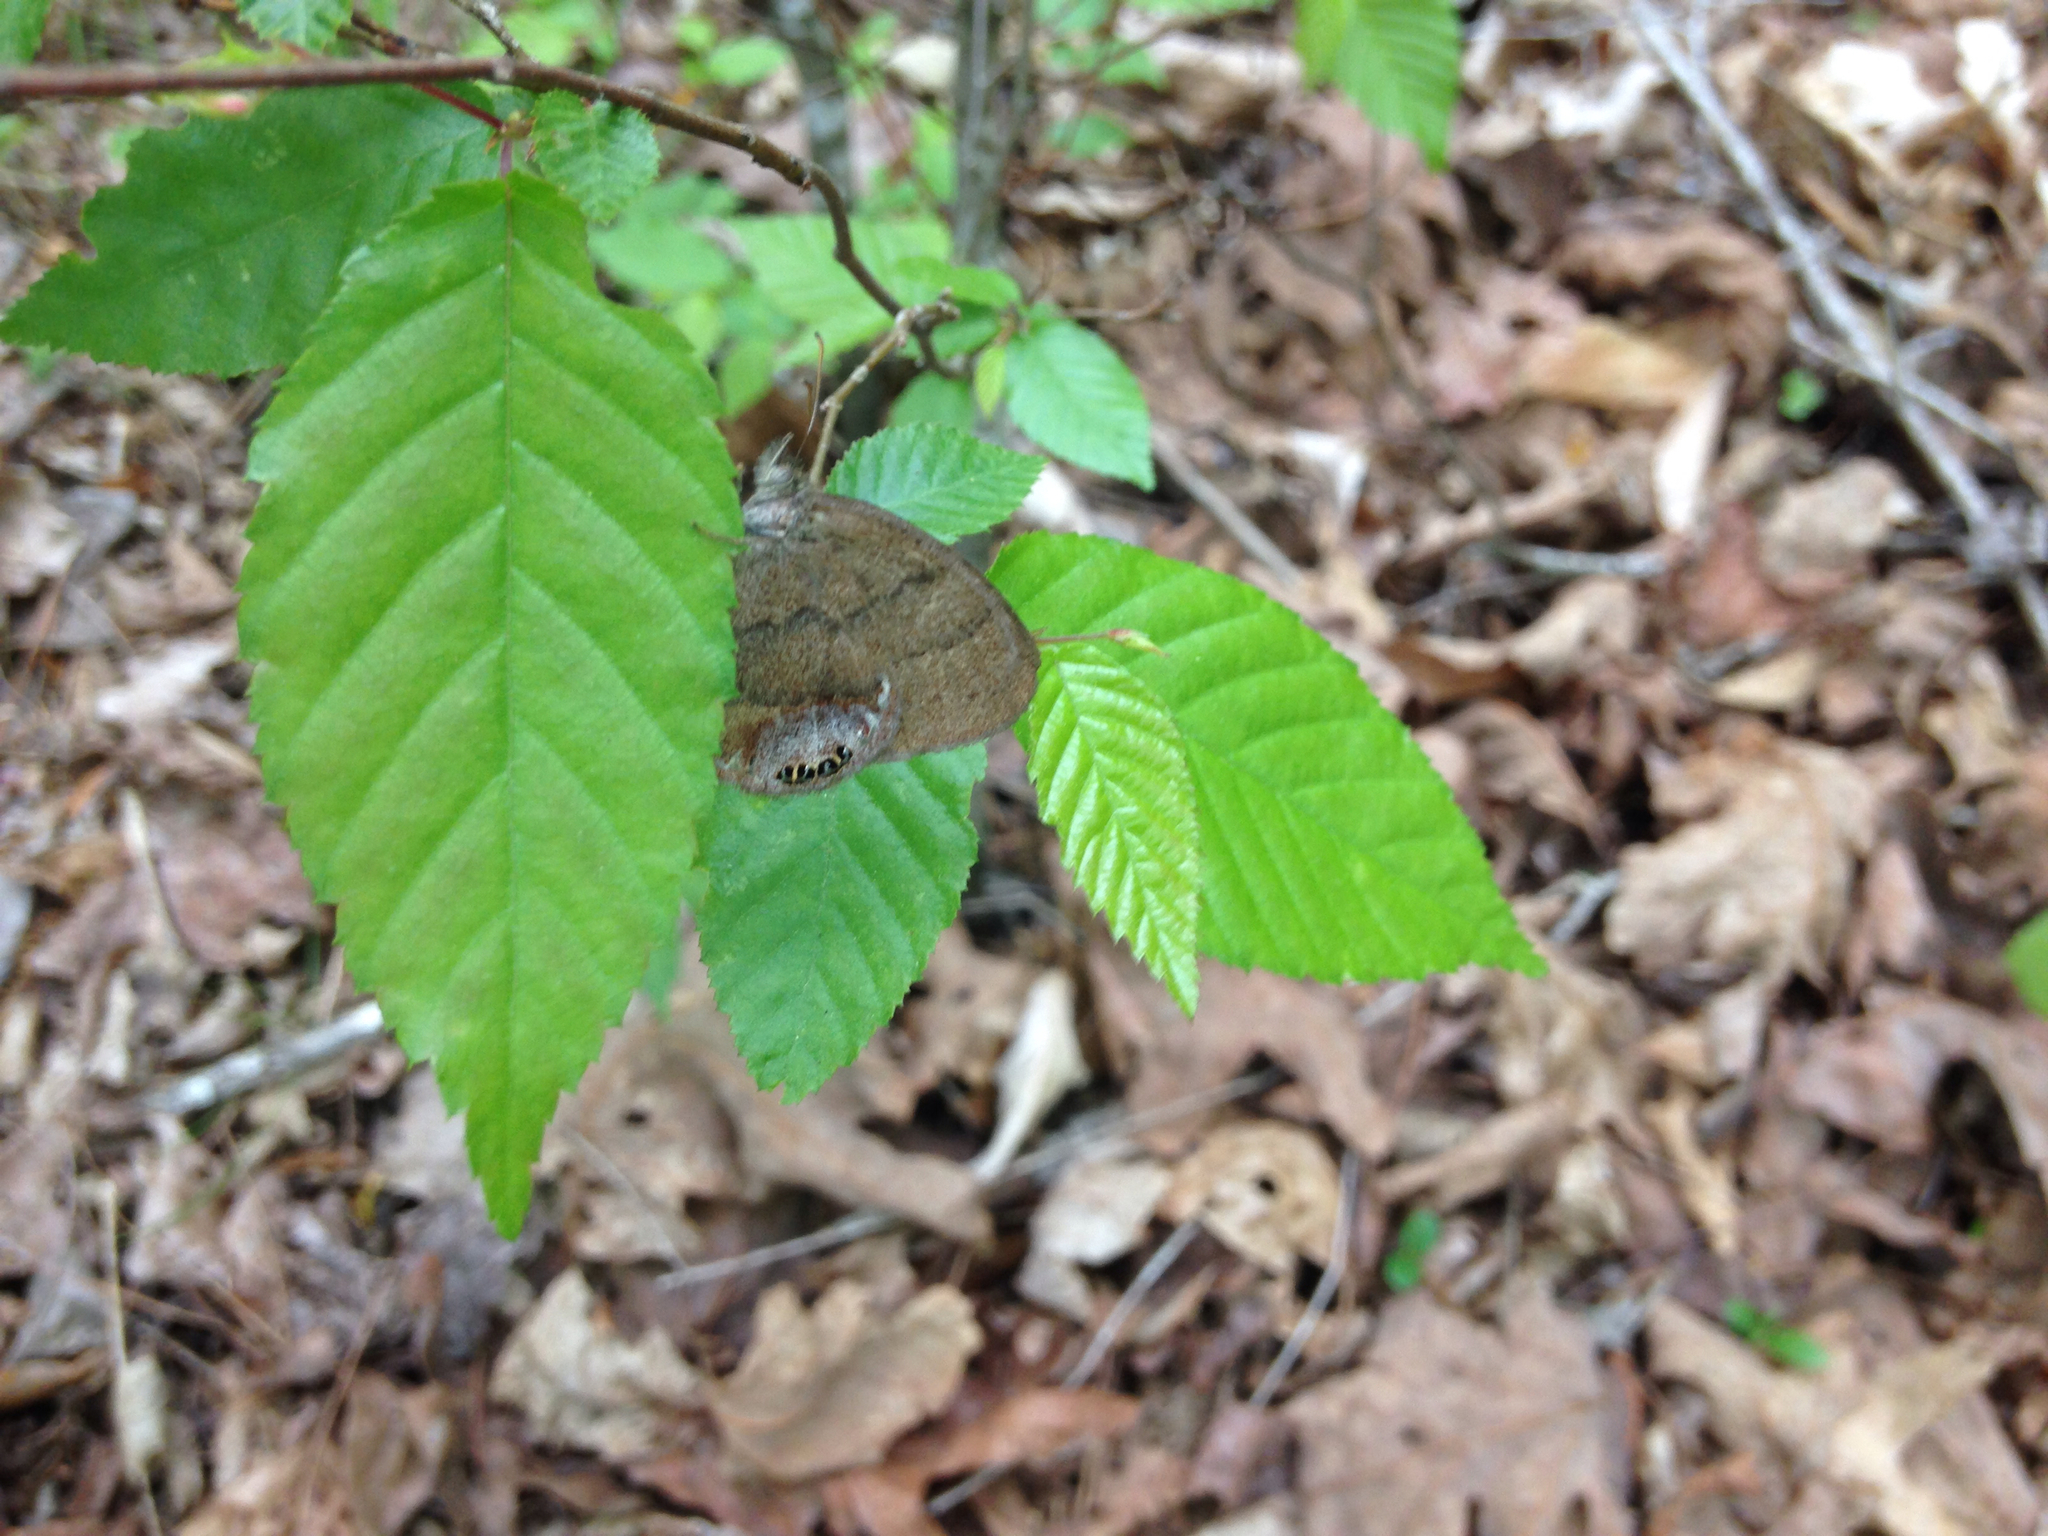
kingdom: Animalia
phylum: Arthropoda
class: Insecta
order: Lepidoptera
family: Nymphalidae
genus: Euptychia
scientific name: Euptychia cornelius
